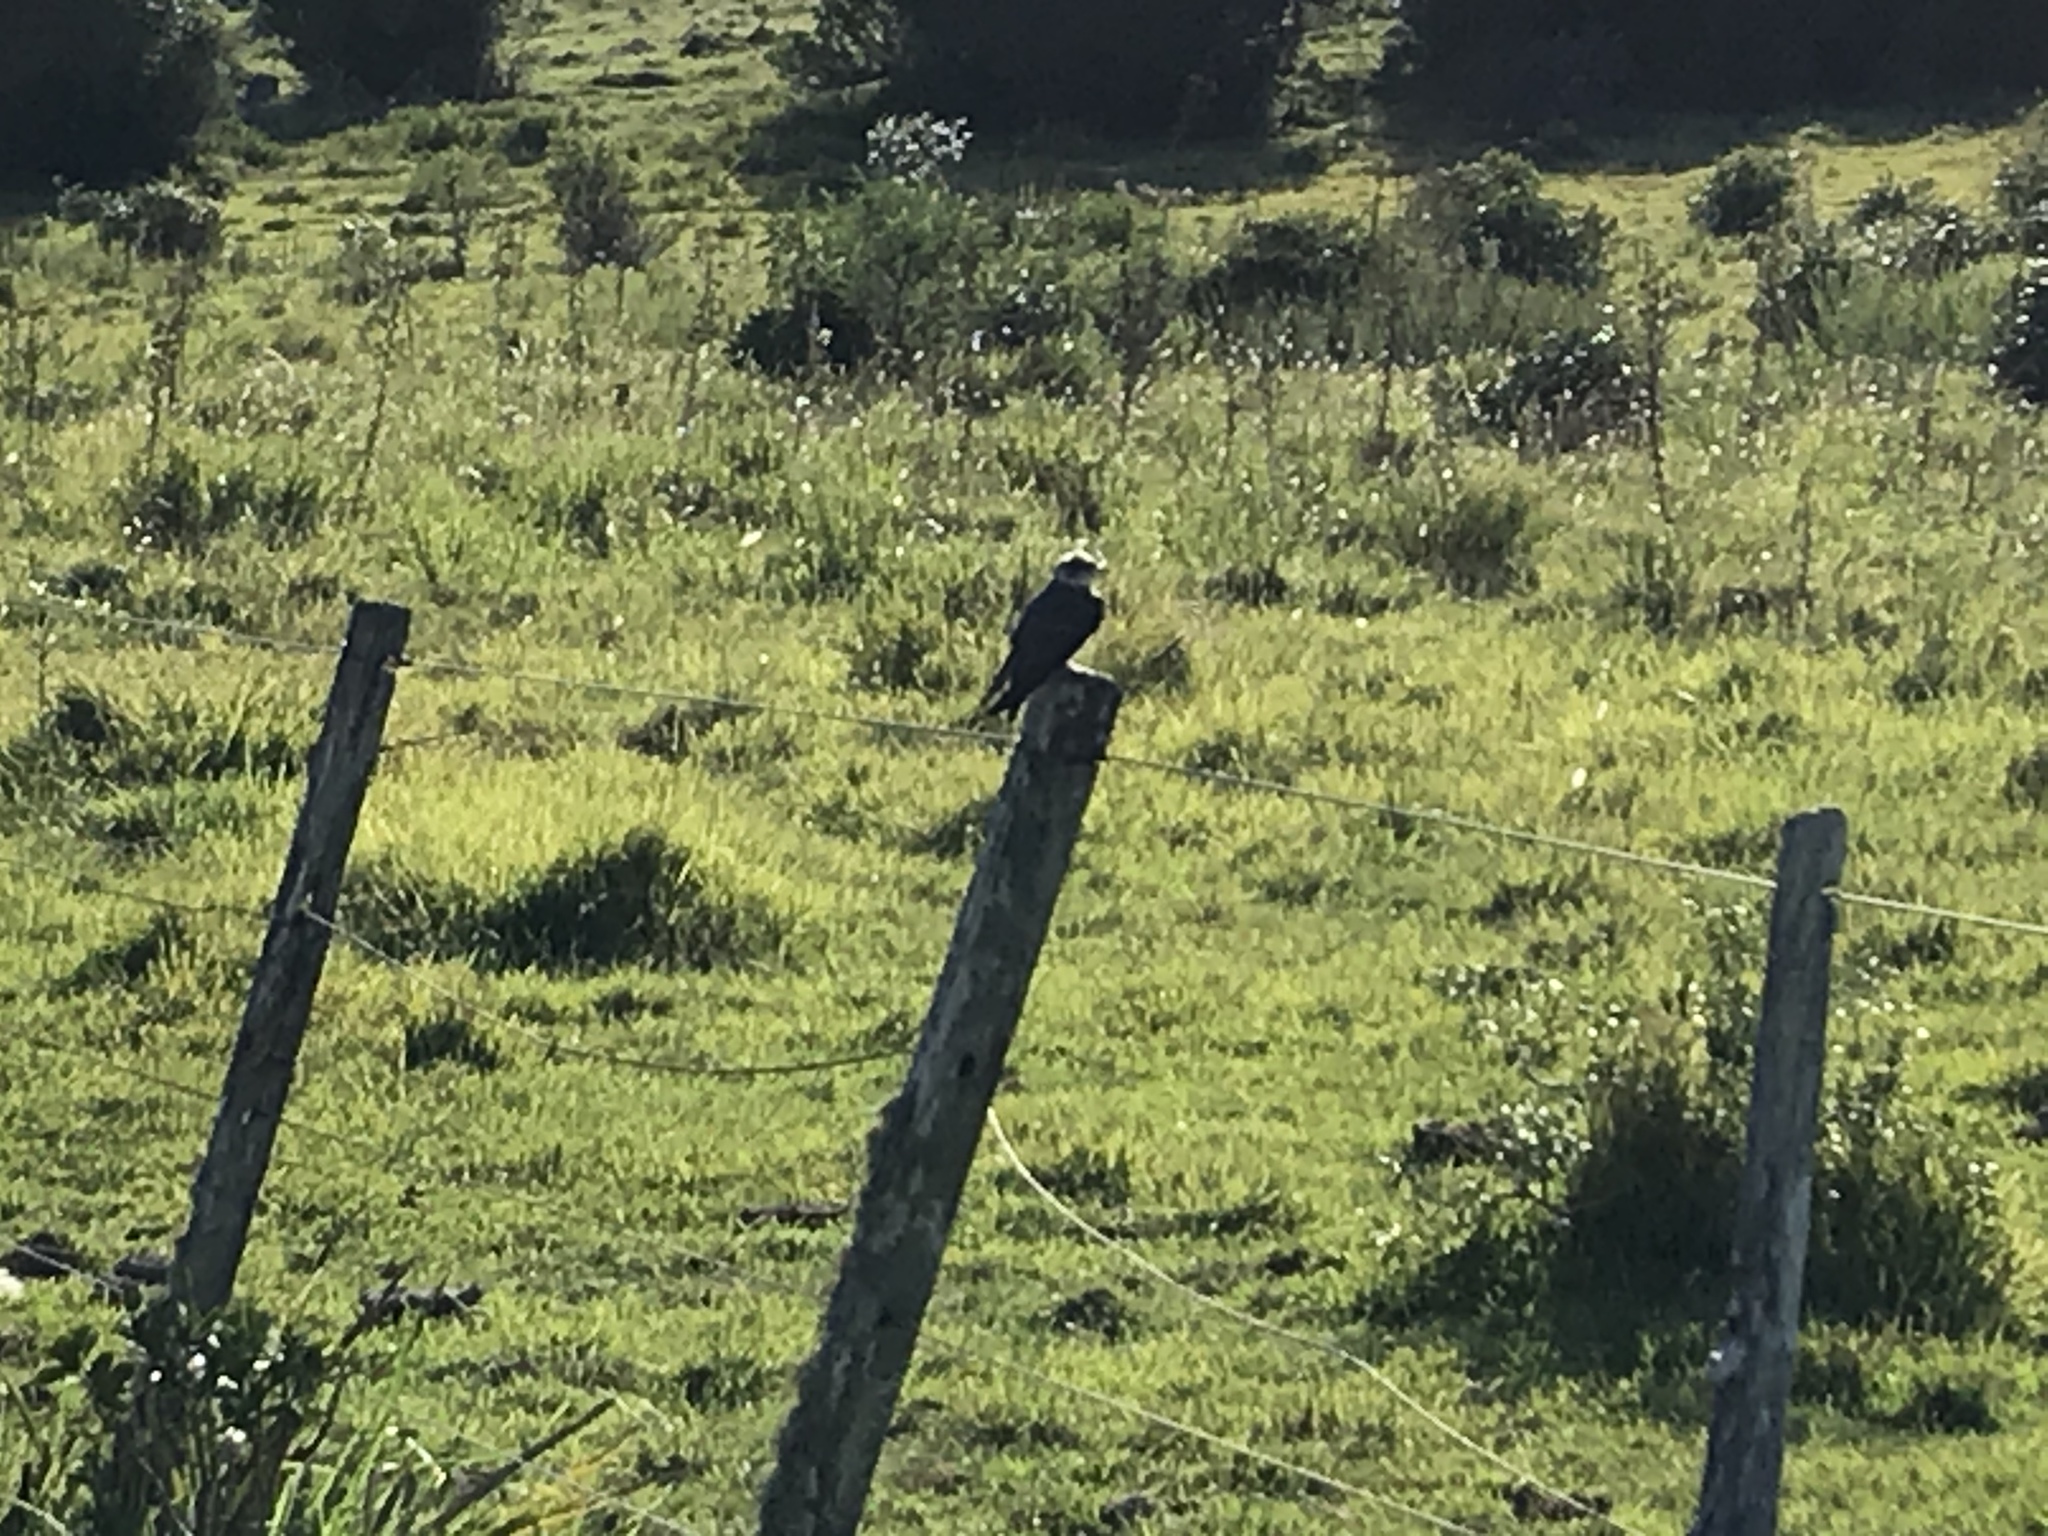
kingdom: Animalia
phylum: Chordata
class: Aves
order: Passeriformes
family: Hirundinidae
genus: Progne
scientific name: Progne tapera
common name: Brown-chested martin
